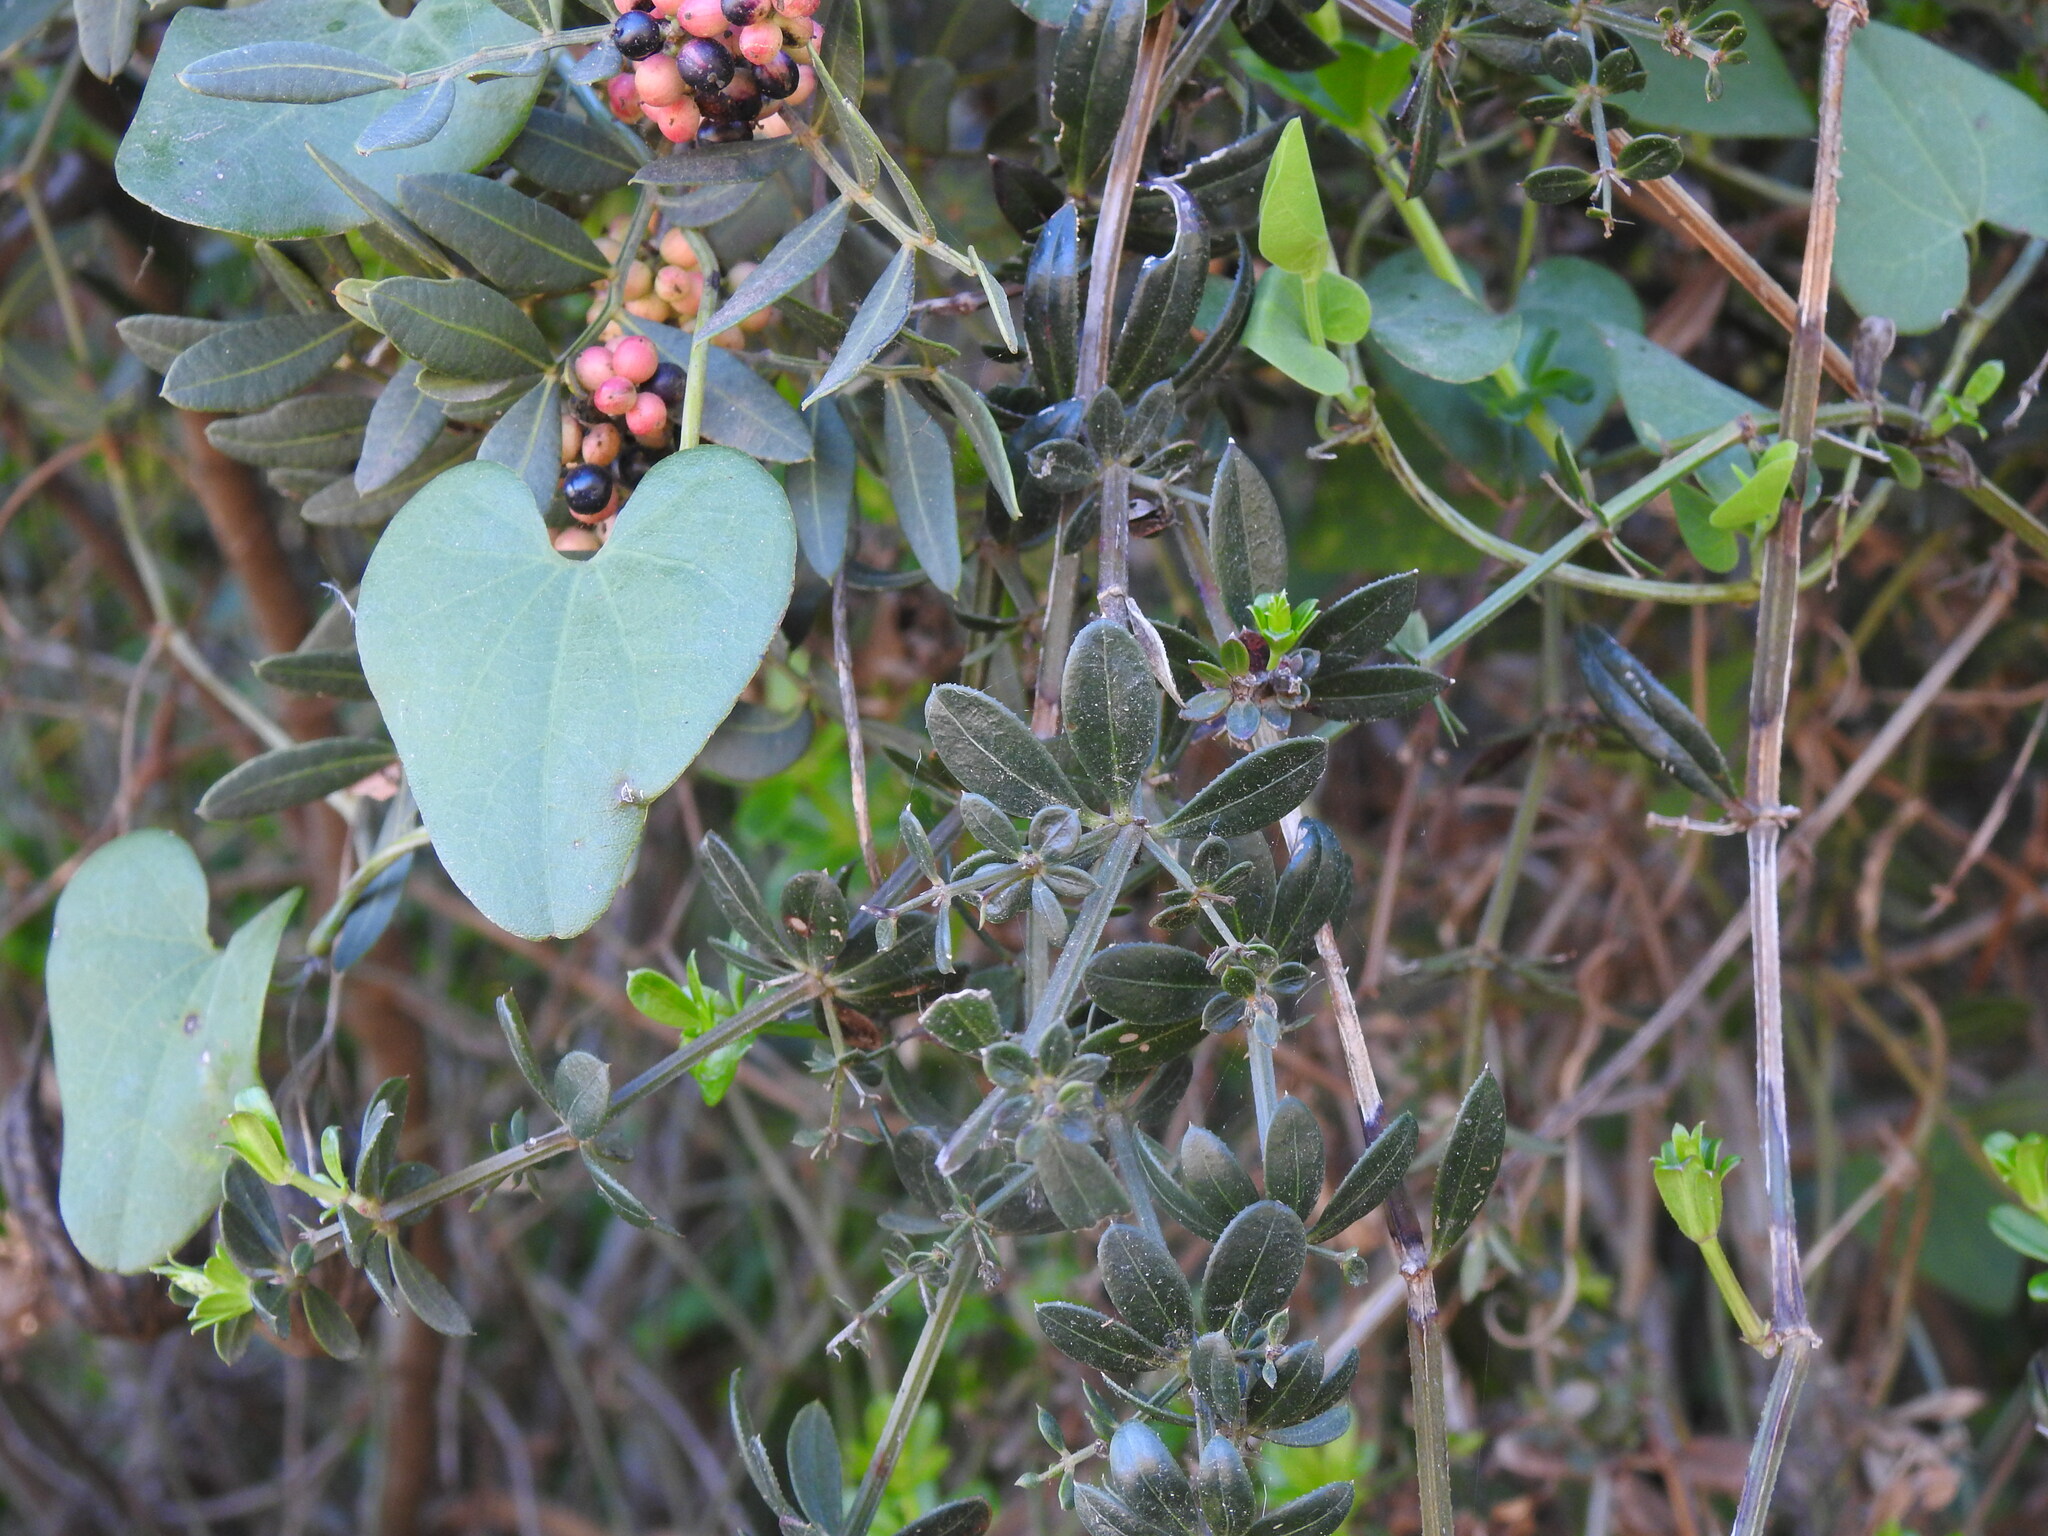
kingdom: Plantae
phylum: Tracheophyta
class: Magnoliopsida
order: Gentianales
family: Rubiaceae
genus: Rubia
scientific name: Rubia peregrina
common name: Wild madder
